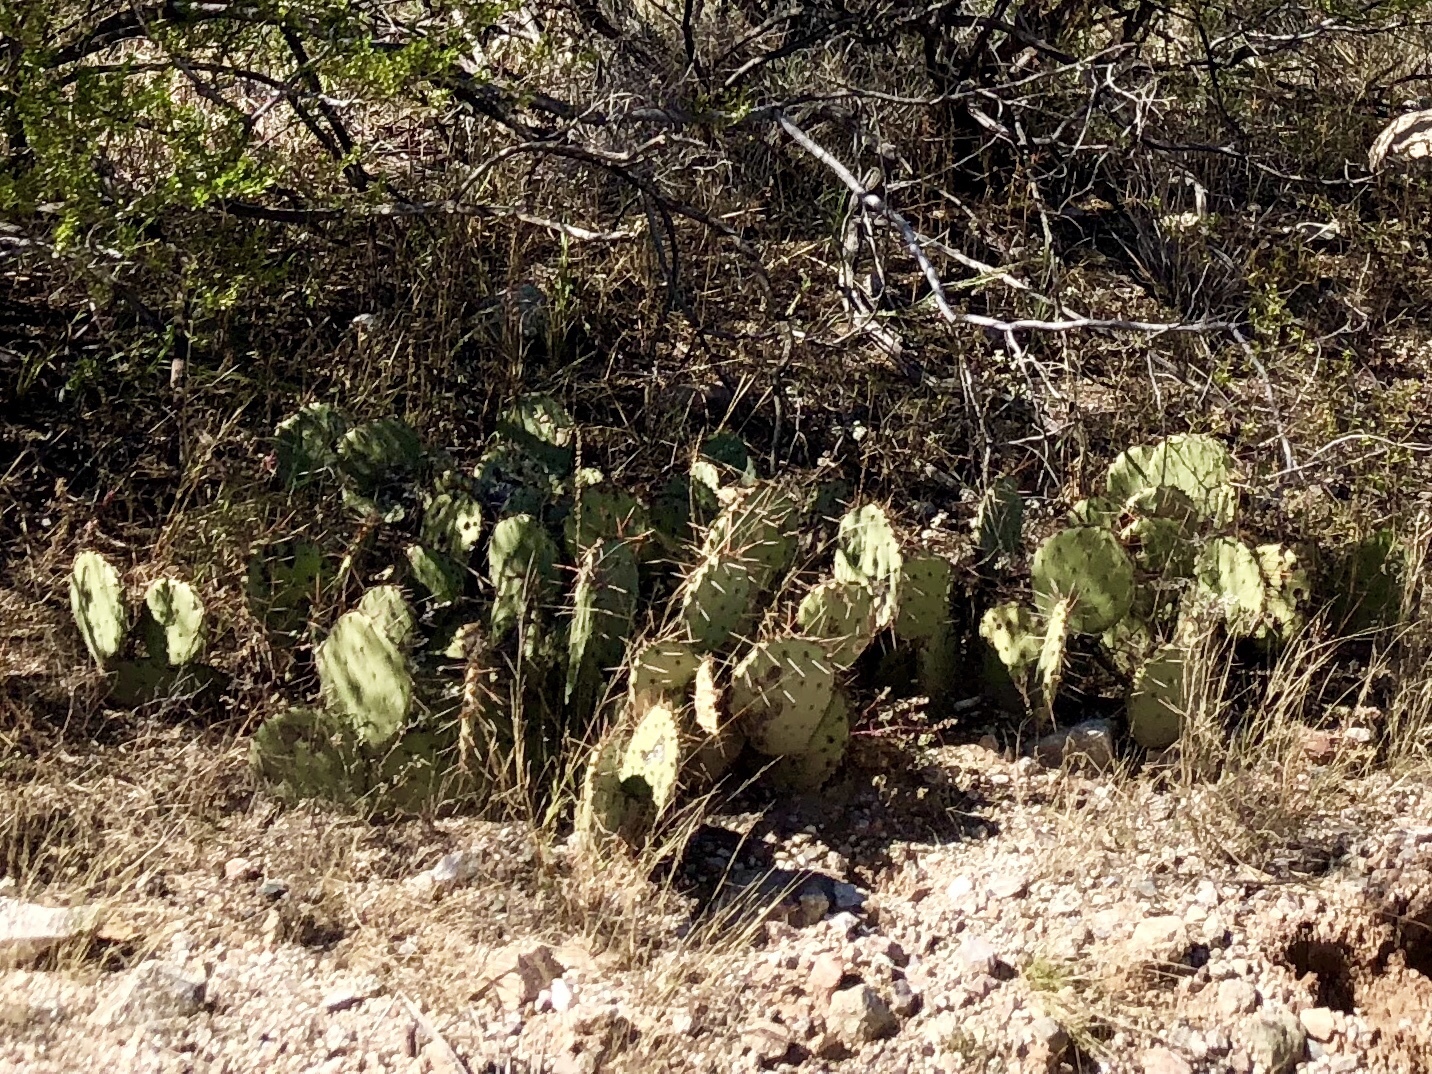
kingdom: Plantae
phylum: Tracheophyta
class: Magnoliopsida
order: Caryophyllales
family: Cactaceae
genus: Opuntia
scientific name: Opuntia engelmannii
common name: Cactus-apple
